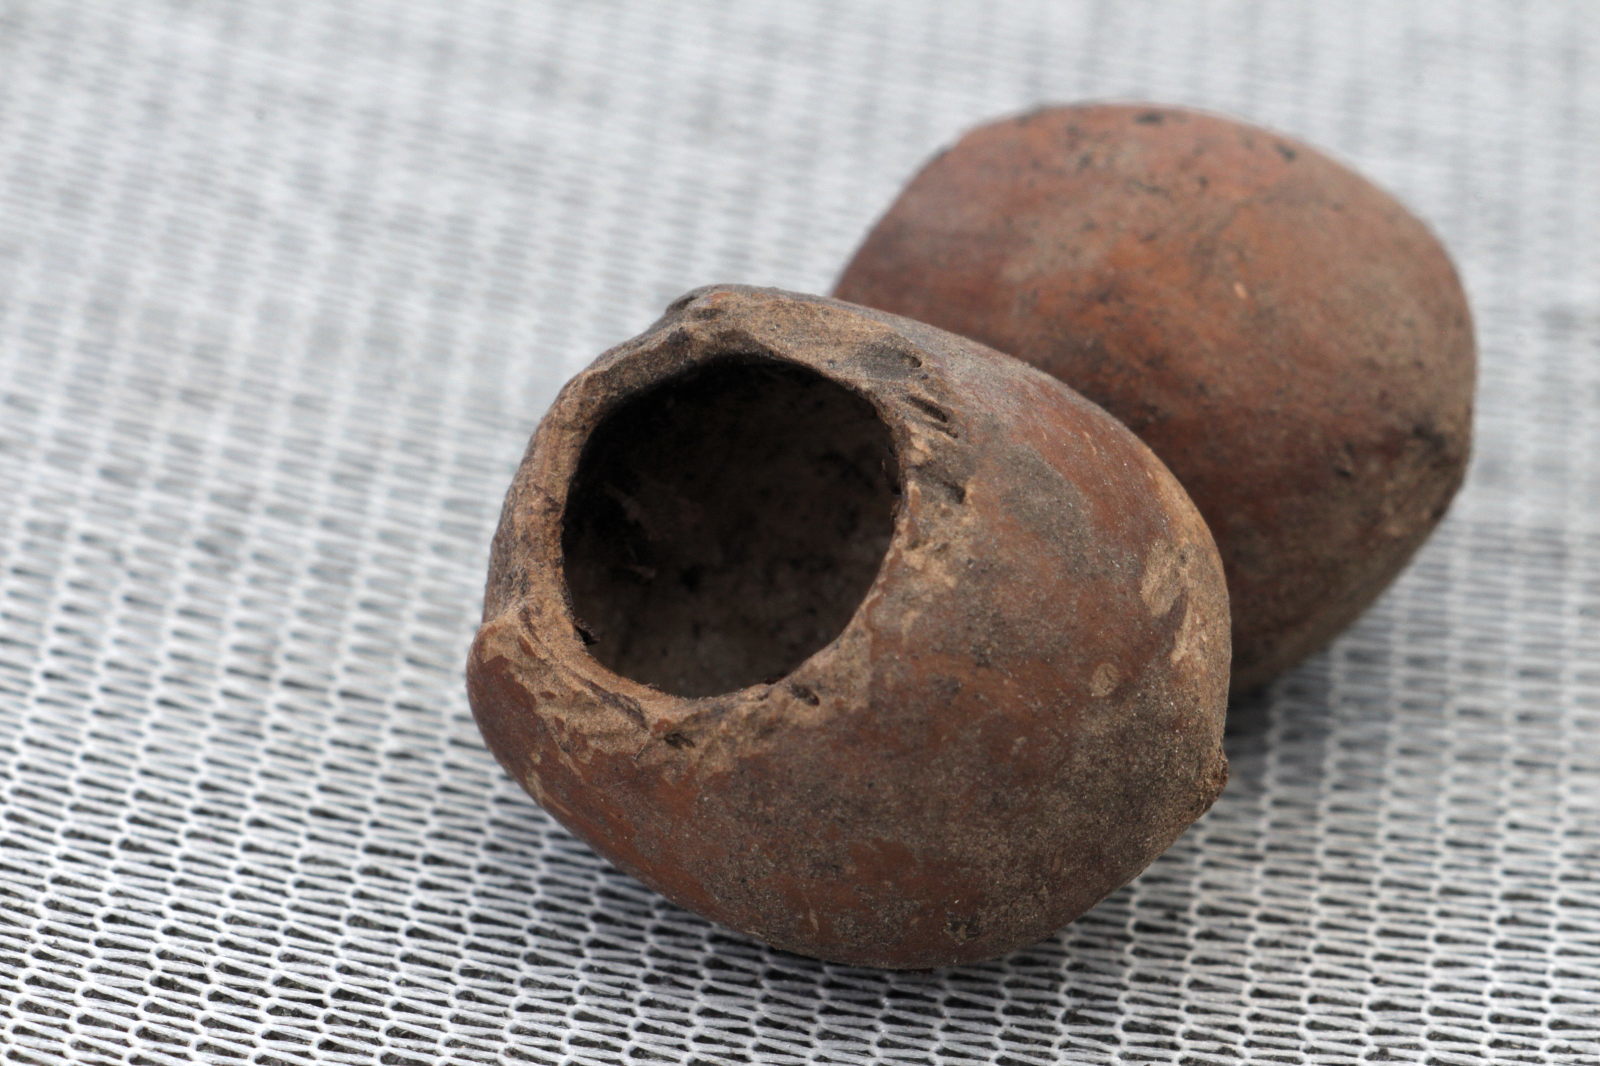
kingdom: Animalia
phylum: Chordata
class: Mammalia
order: Rodentia
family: Gliridae
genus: Muscardinus
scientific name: Muscardinus avellanarius
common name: Hazel dormouse
